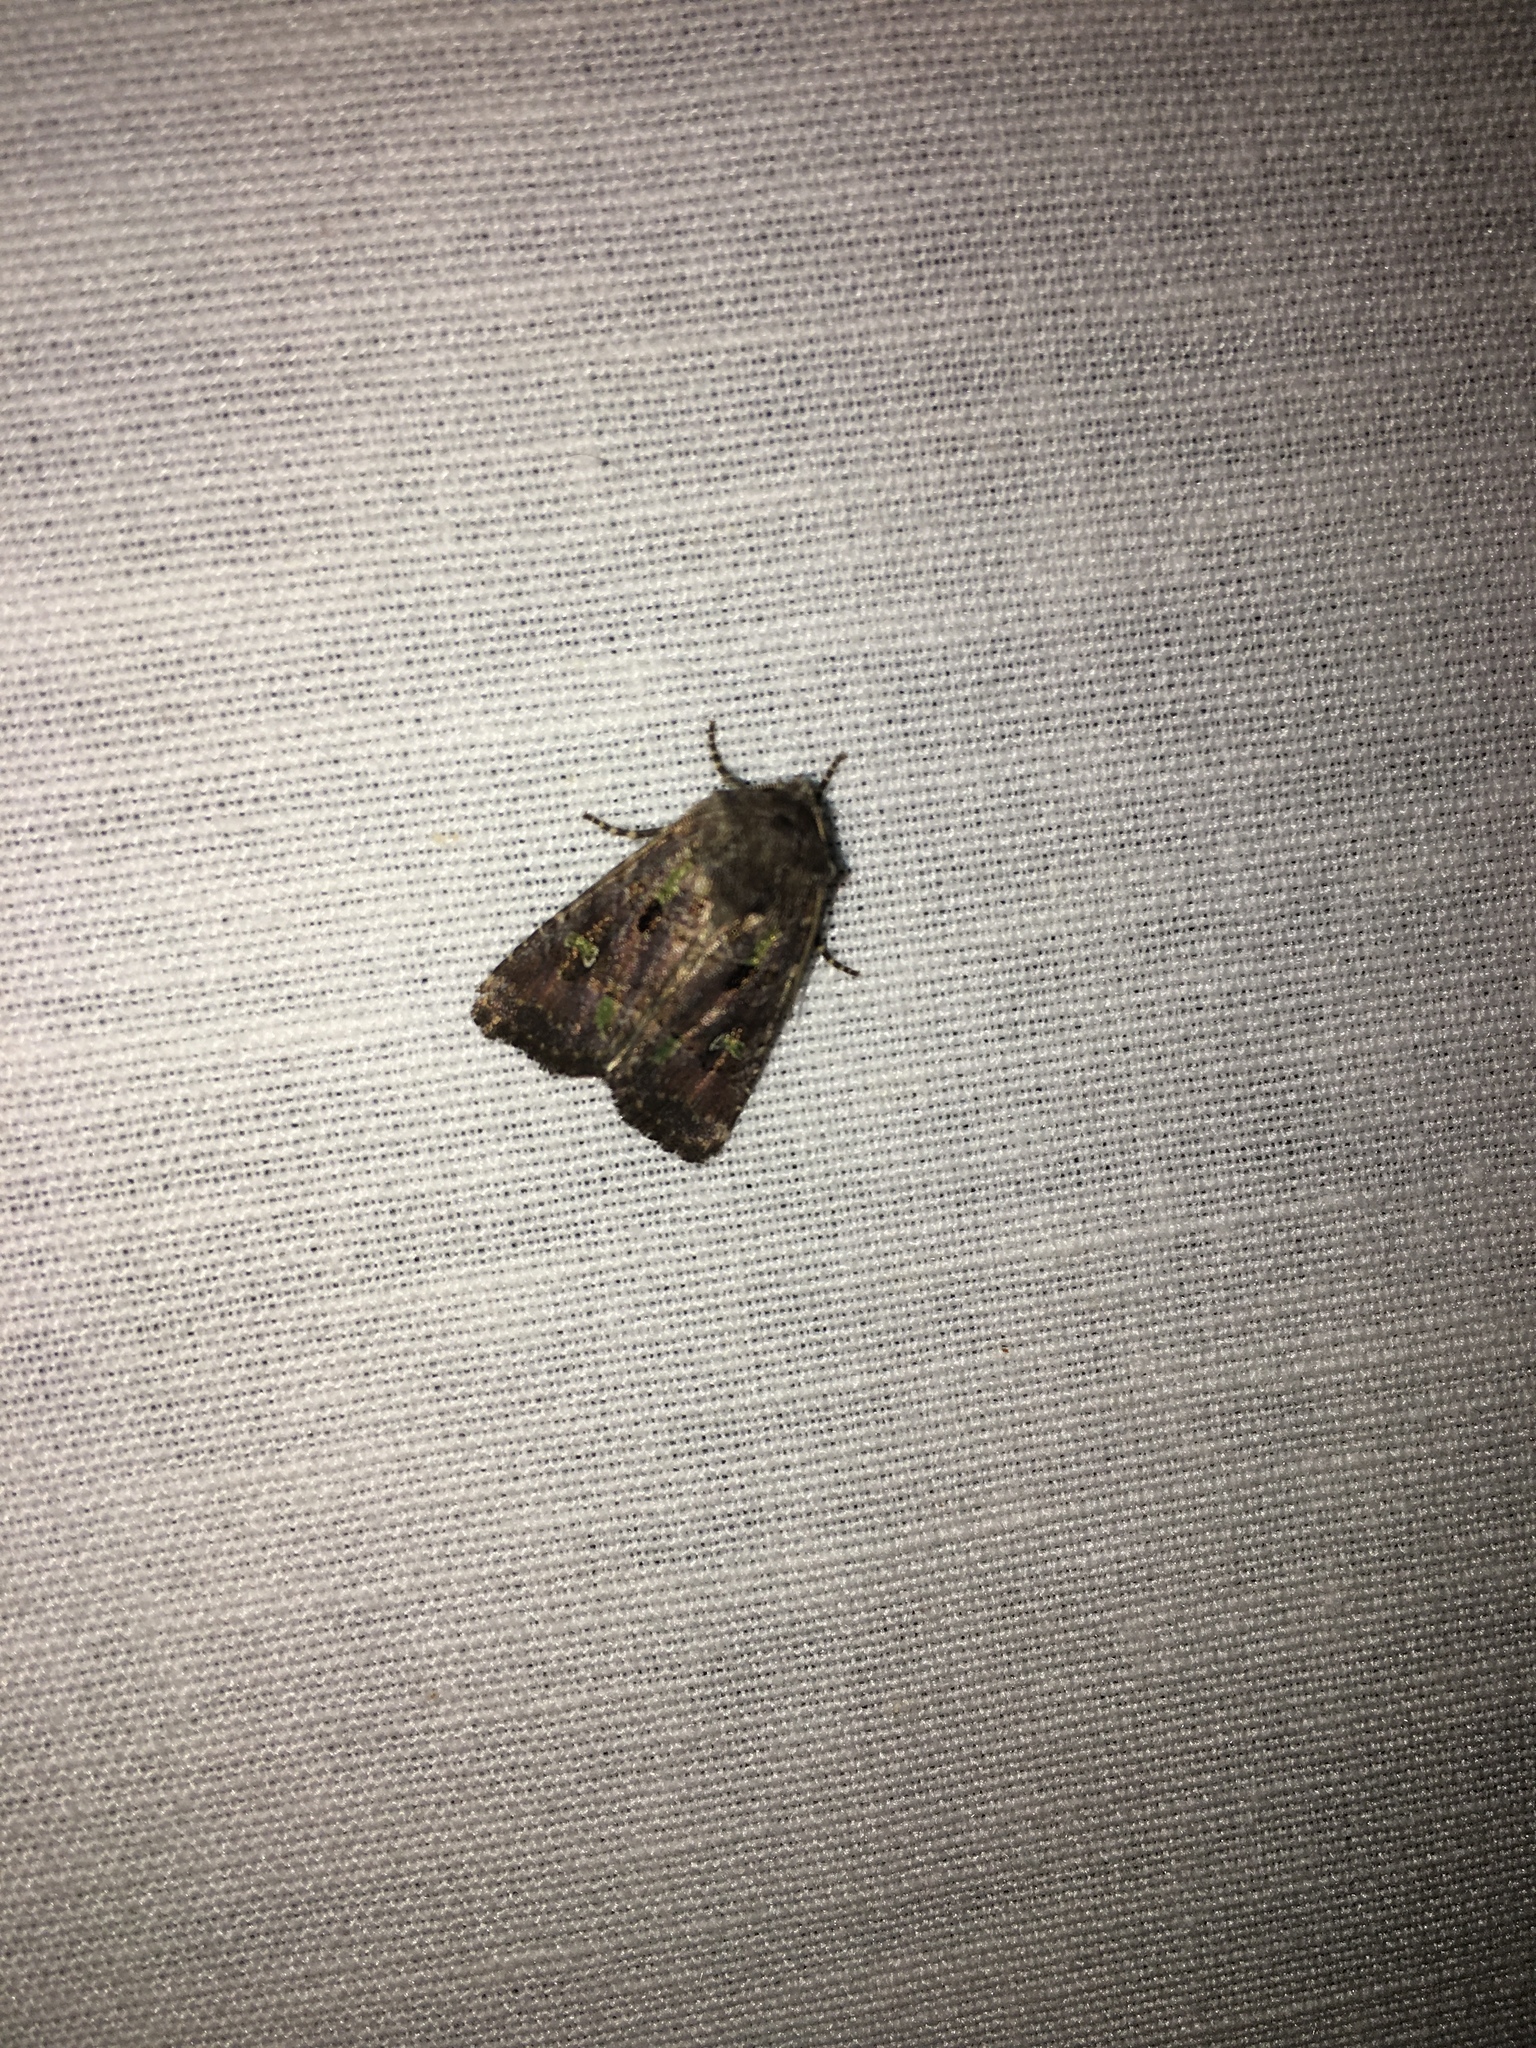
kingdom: Animalia
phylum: Arthropoda
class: Insecta
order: Lepidoptera
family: Noctuidae
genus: Lacinipolia
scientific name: Lacinipolia renigera
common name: Kidney-spotted minor
